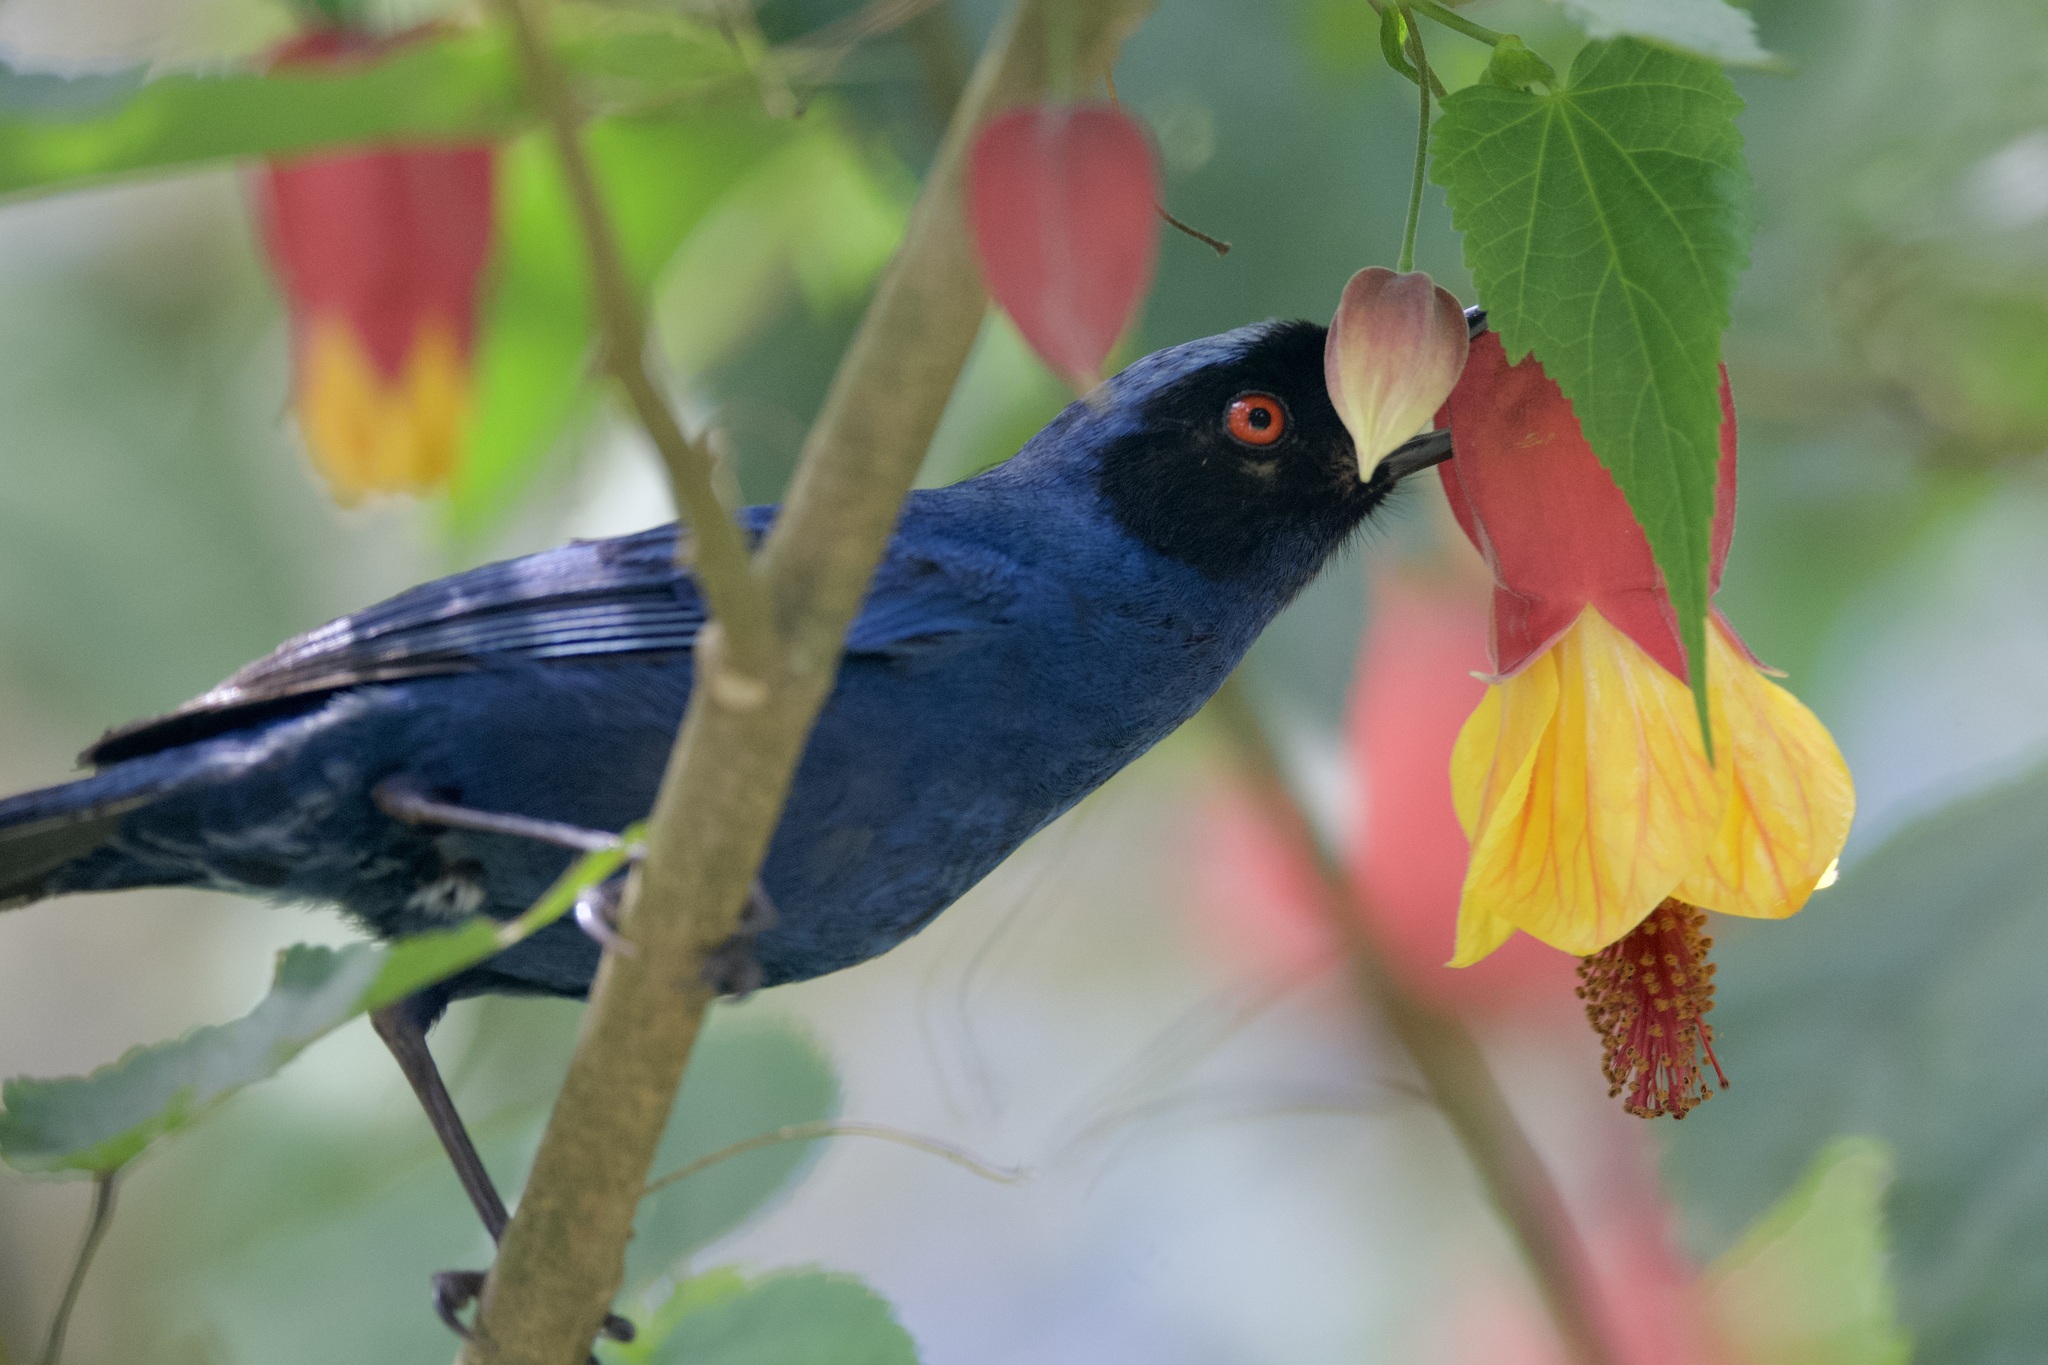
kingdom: Animalia
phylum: Chordata
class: Aves
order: Passeriformes
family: Thraupidae
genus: Diglossa
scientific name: Diglossa cyanea
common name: Masked flowerpiercer
